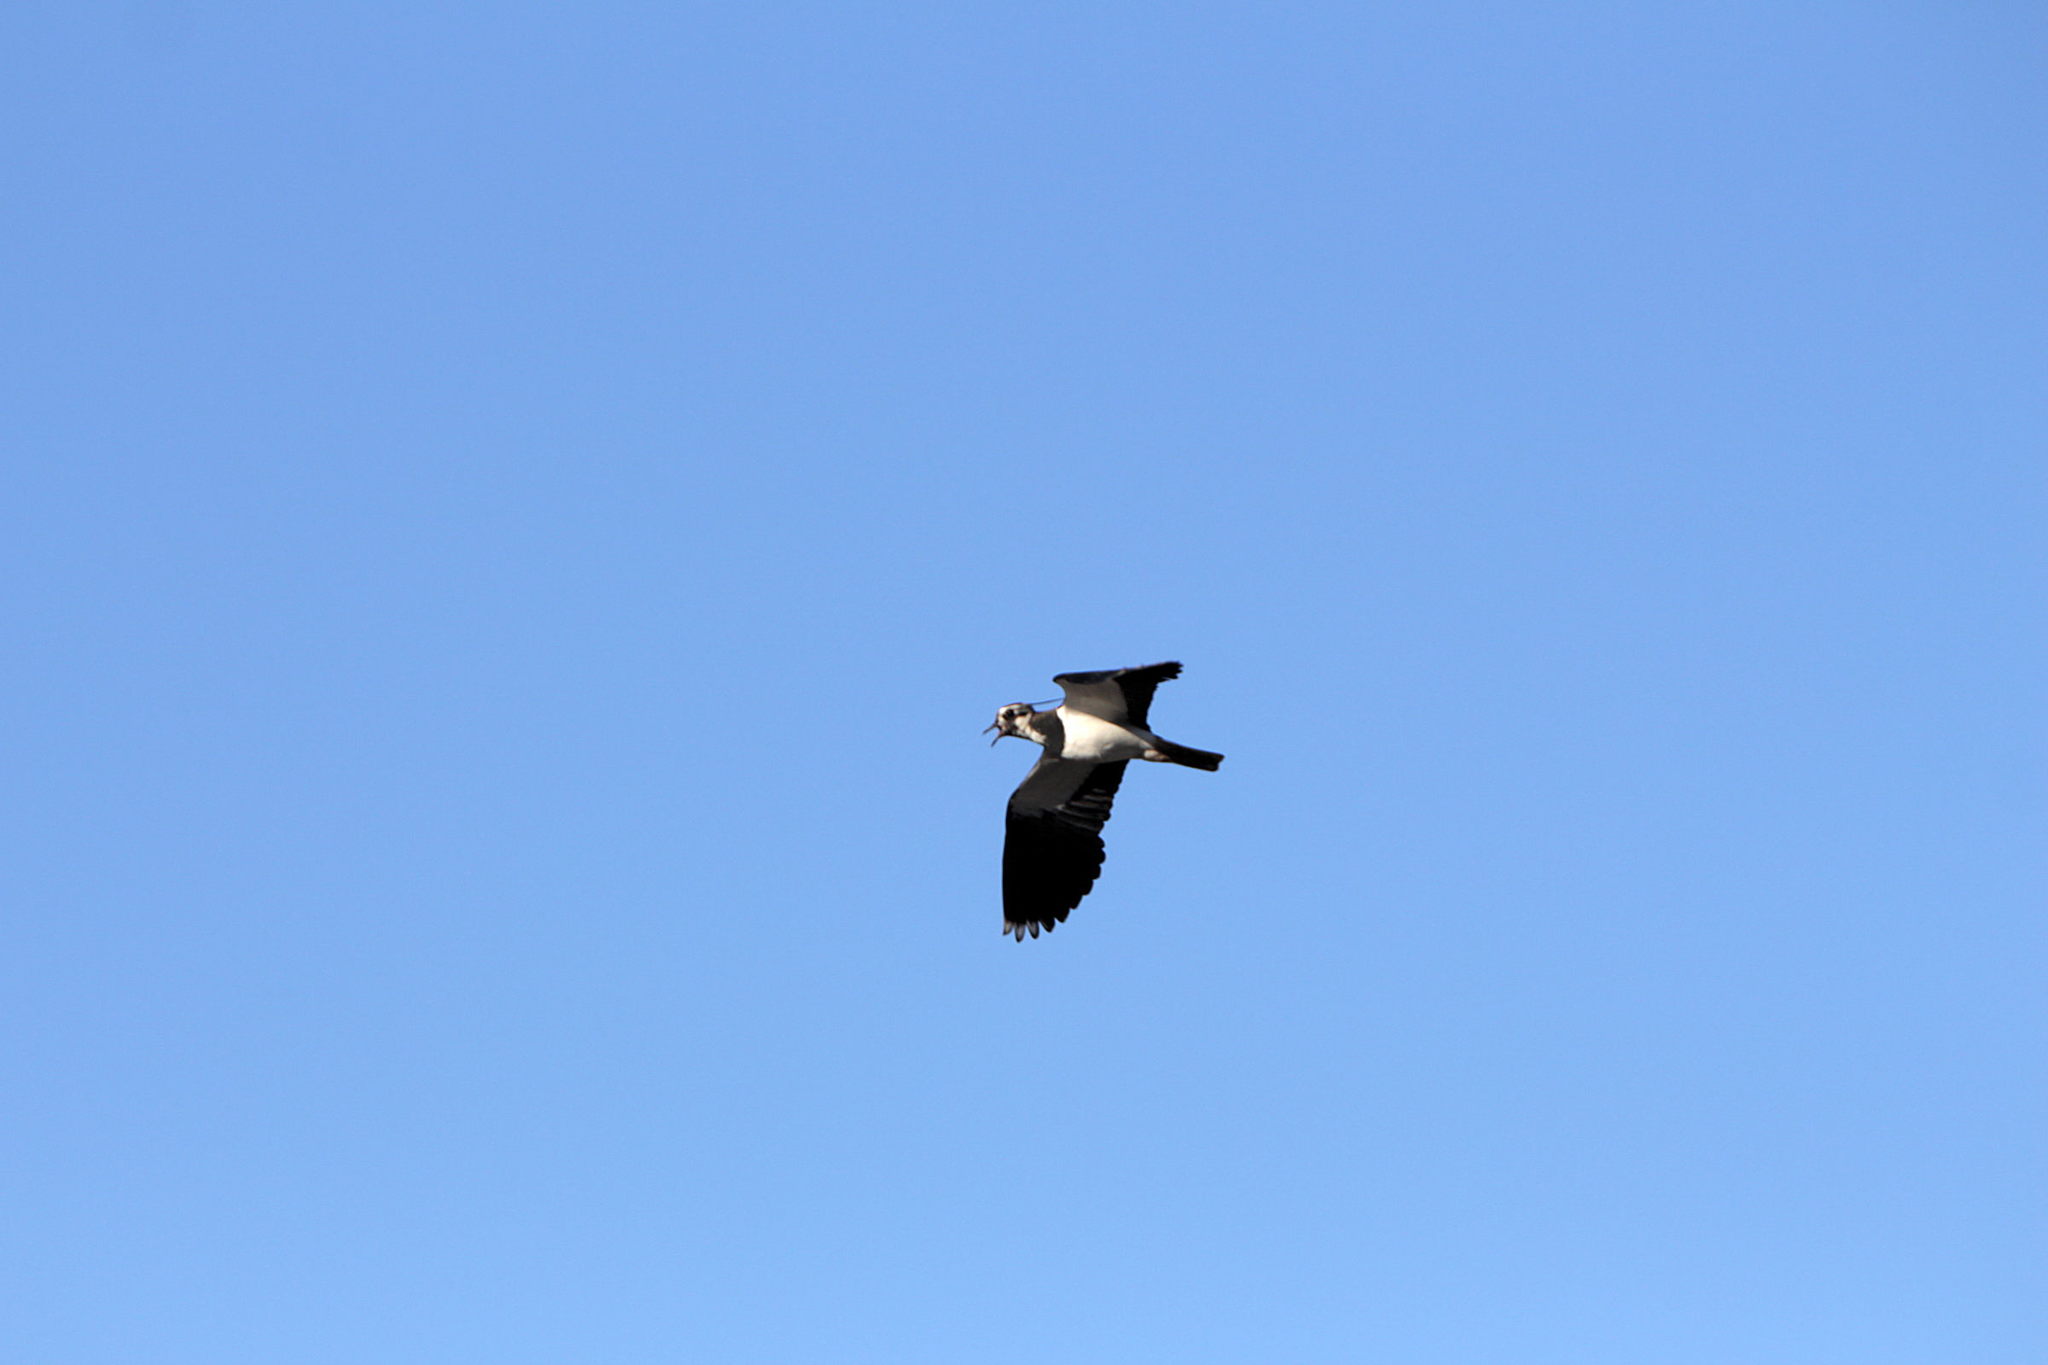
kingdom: Animalia
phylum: Chordata
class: Aves
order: Charadriiformes
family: Charadriidae
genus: Vanellus
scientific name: Vanellus vanellus
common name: Northern lapwing
